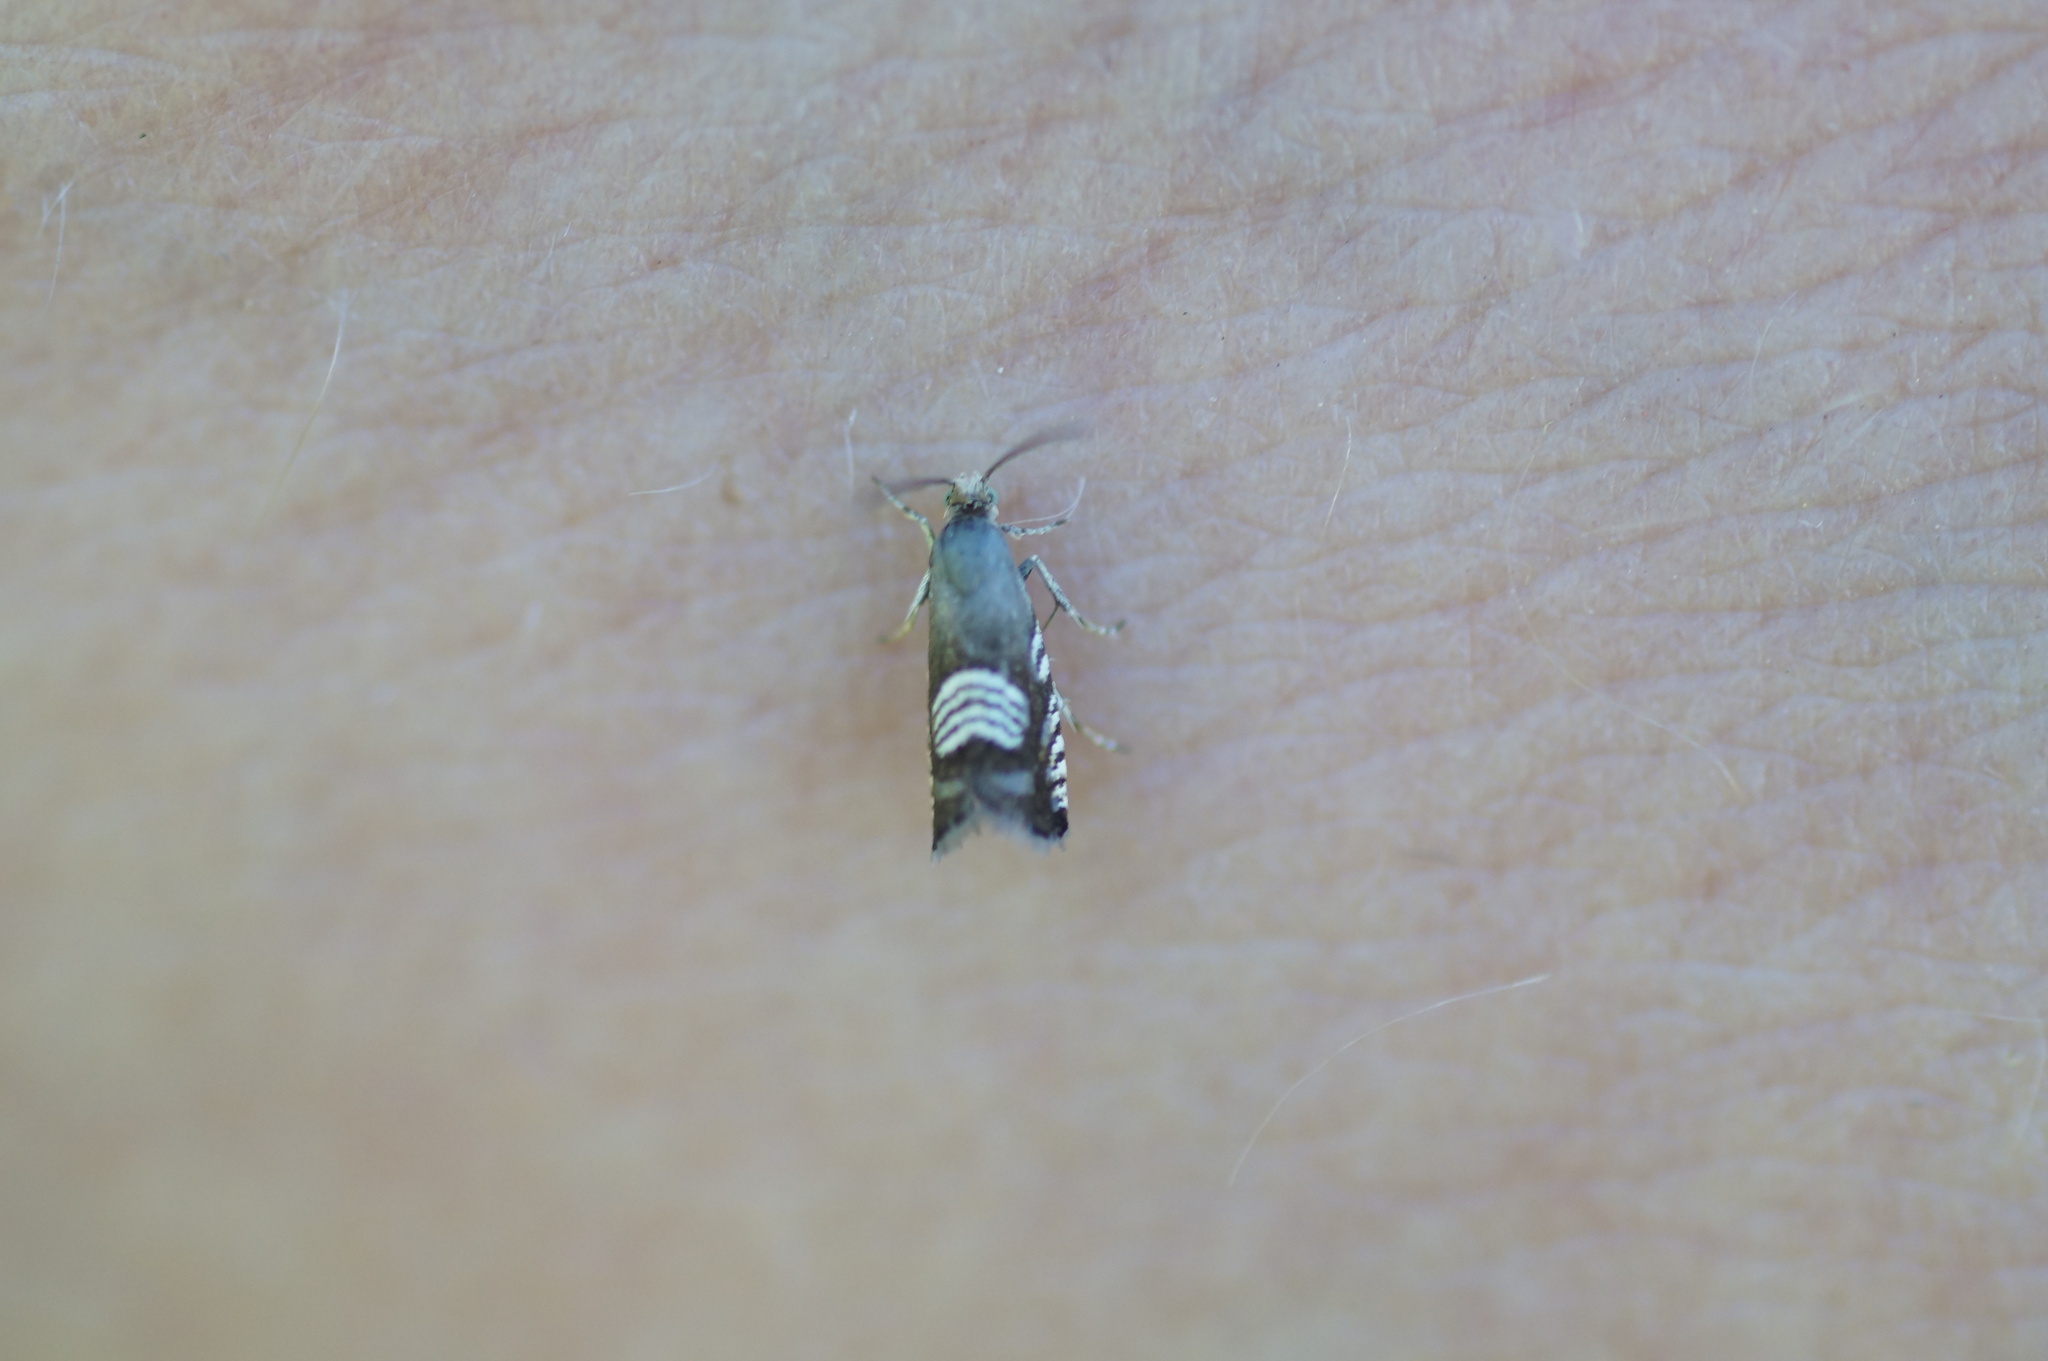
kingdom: Animalia
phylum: Arthropoda
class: Insecta
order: Lepidoptera
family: Tortricidae
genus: Grapholita
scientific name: Grapholita compositella
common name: Triple-stripe piercer
